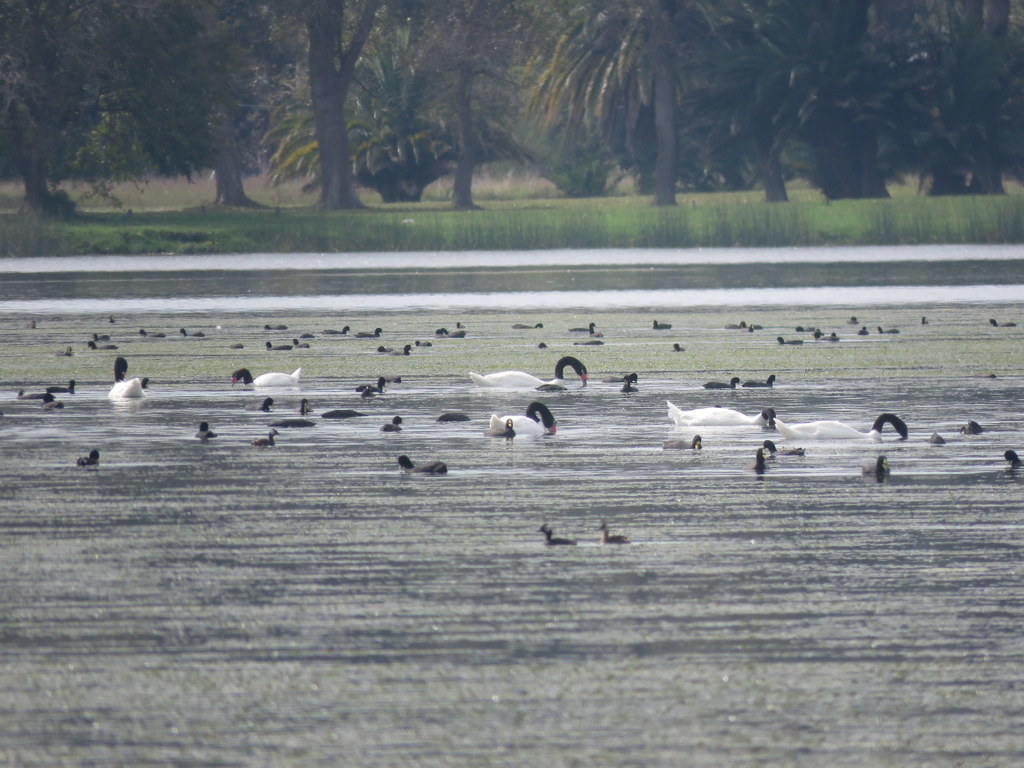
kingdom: Animalia
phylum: Chordata
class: Aves
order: Anseriformes
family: Anatidae
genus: Cygnus
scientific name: Cygnus melancoryphus
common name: Black-necked swan
